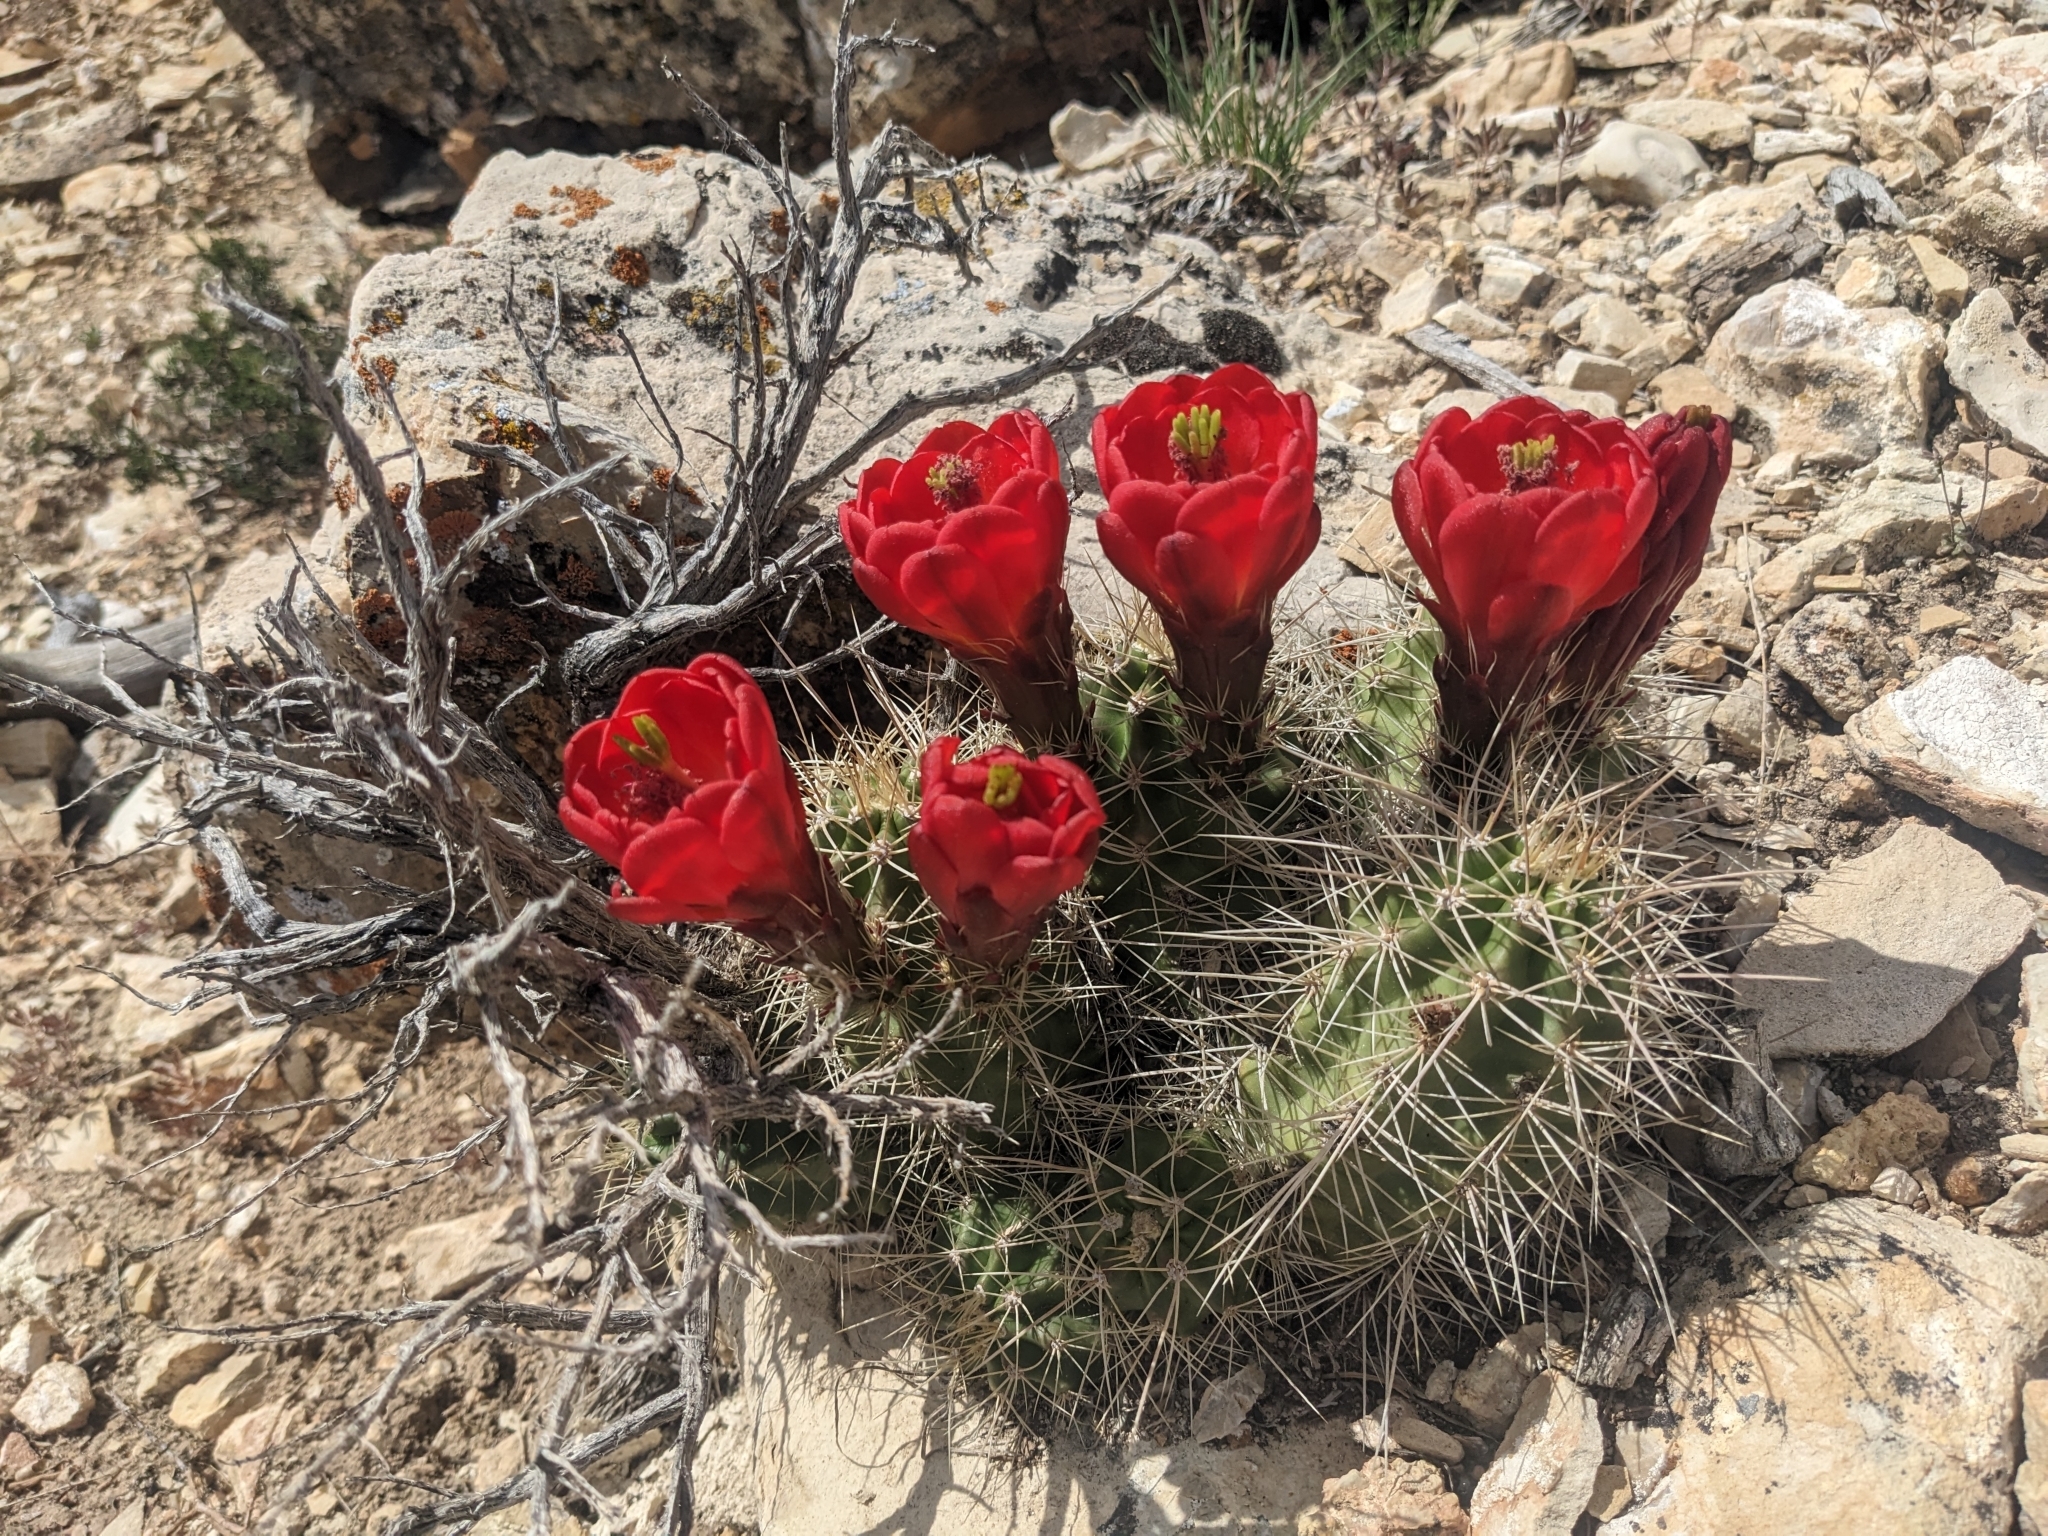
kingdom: Plantae
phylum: Tracheophyta
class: Magnoliopsida
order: Caryophyllales
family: Cactaceae
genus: Echinocereus
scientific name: Echinocereus triglochidiatus
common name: Claretcup hedgehog
